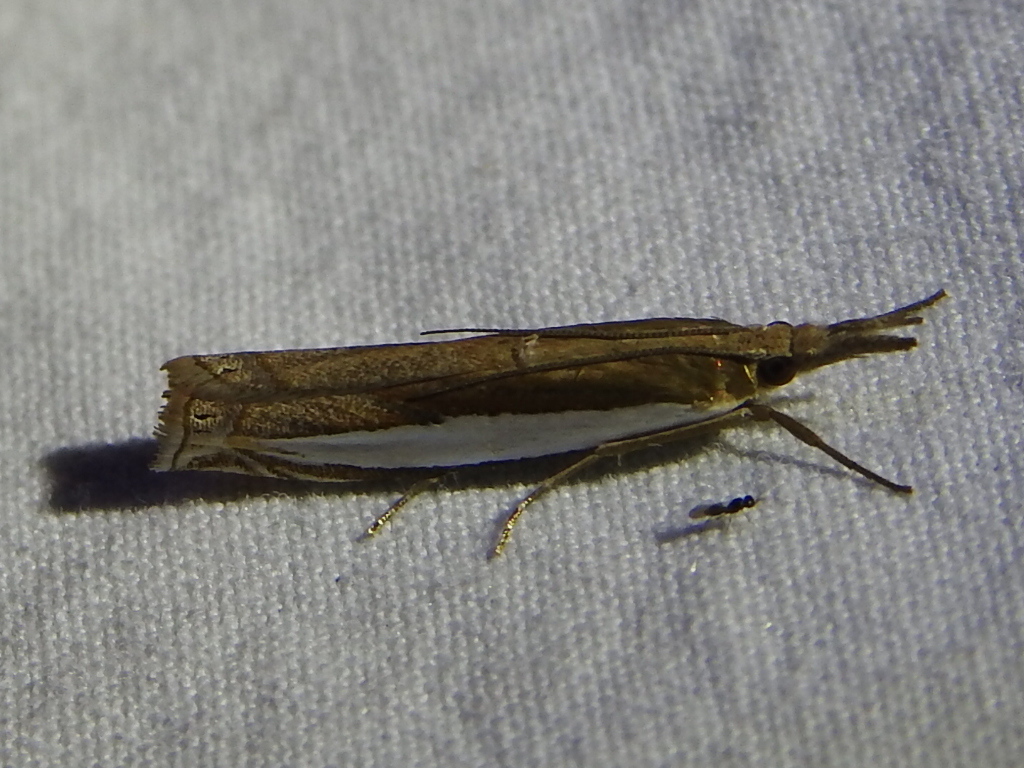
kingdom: Animalia
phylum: Arthropoda
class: Insecta
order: Lepidoptera
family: Crambidae
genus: Crambus
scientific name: Crambus leachellus
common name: Leach's grass-veneer
